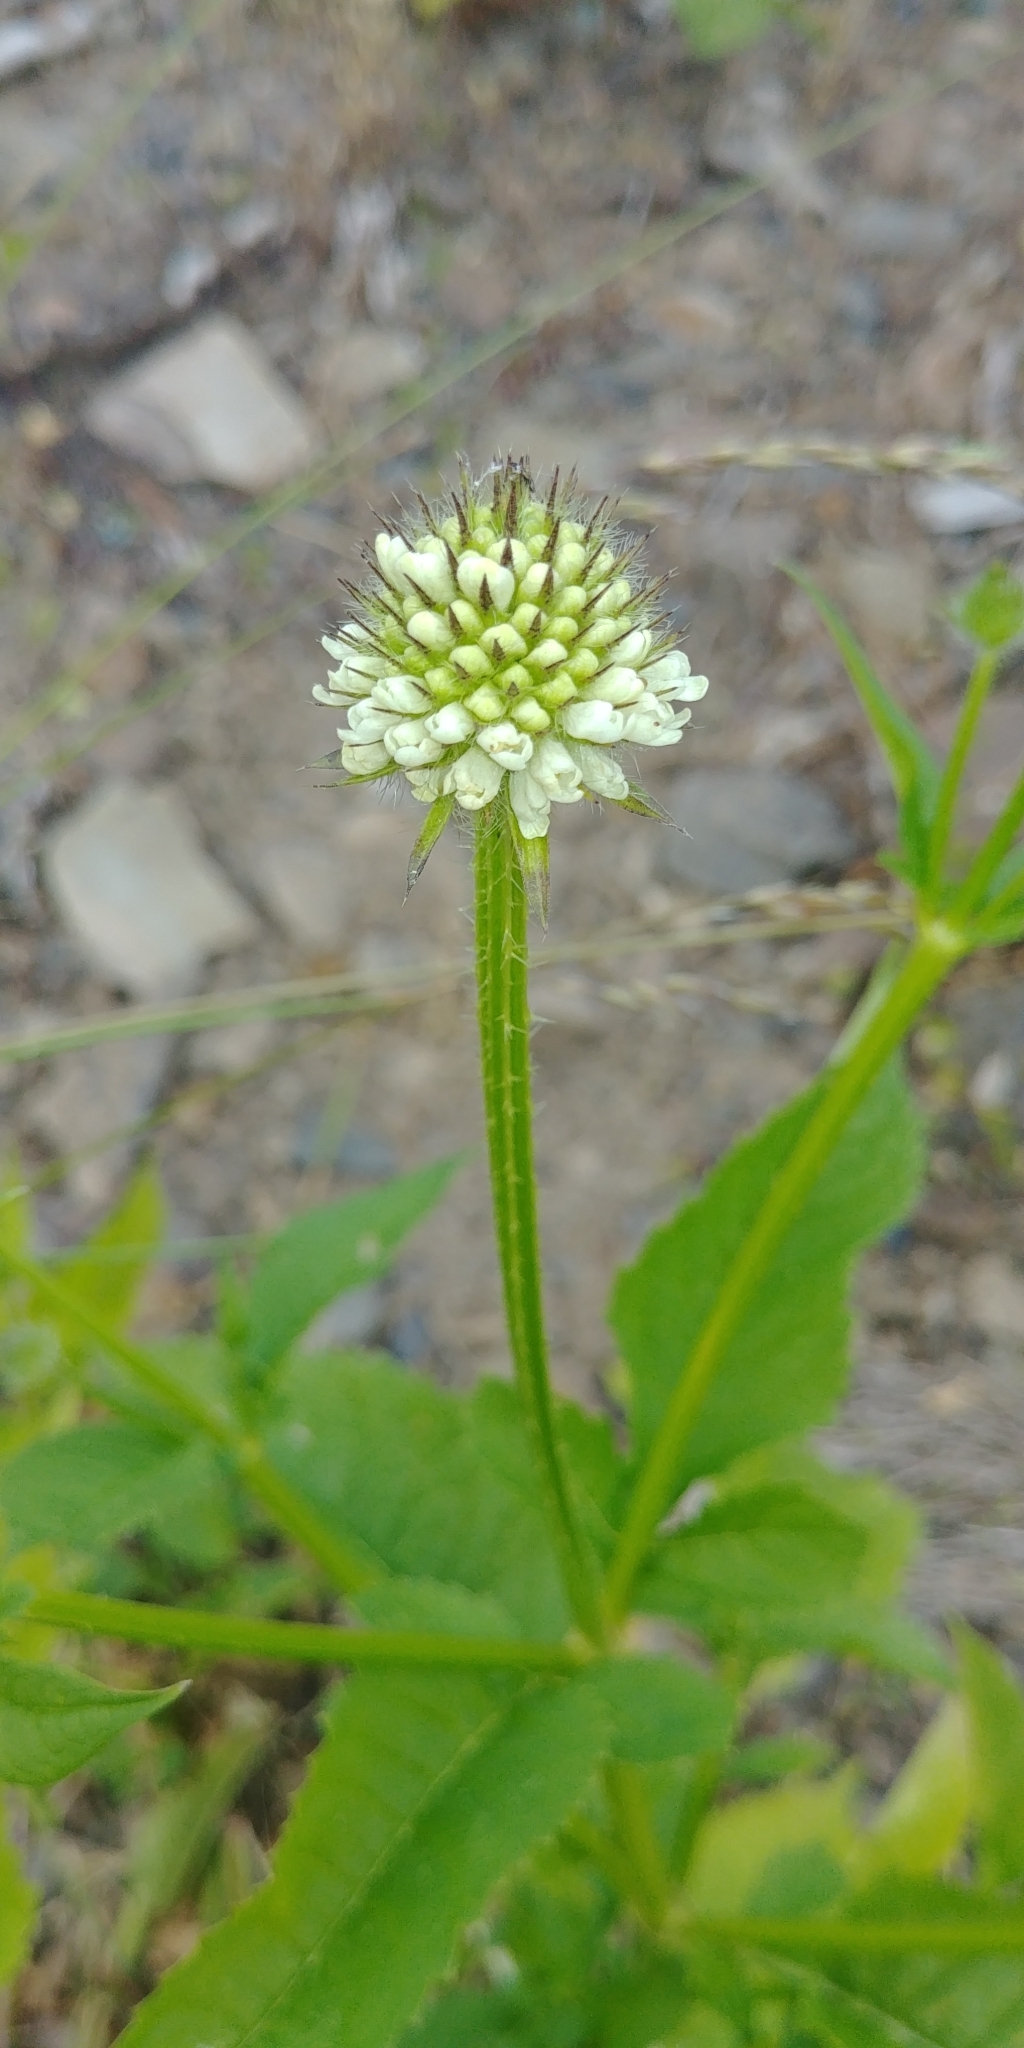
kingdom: Plantae
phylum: Tracheophyta
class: Magnoliopsida
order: Dipsacales
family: Caprifoliaceae
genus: Dipsacus
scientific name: Dipsacus pilosus
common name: Small teasel
